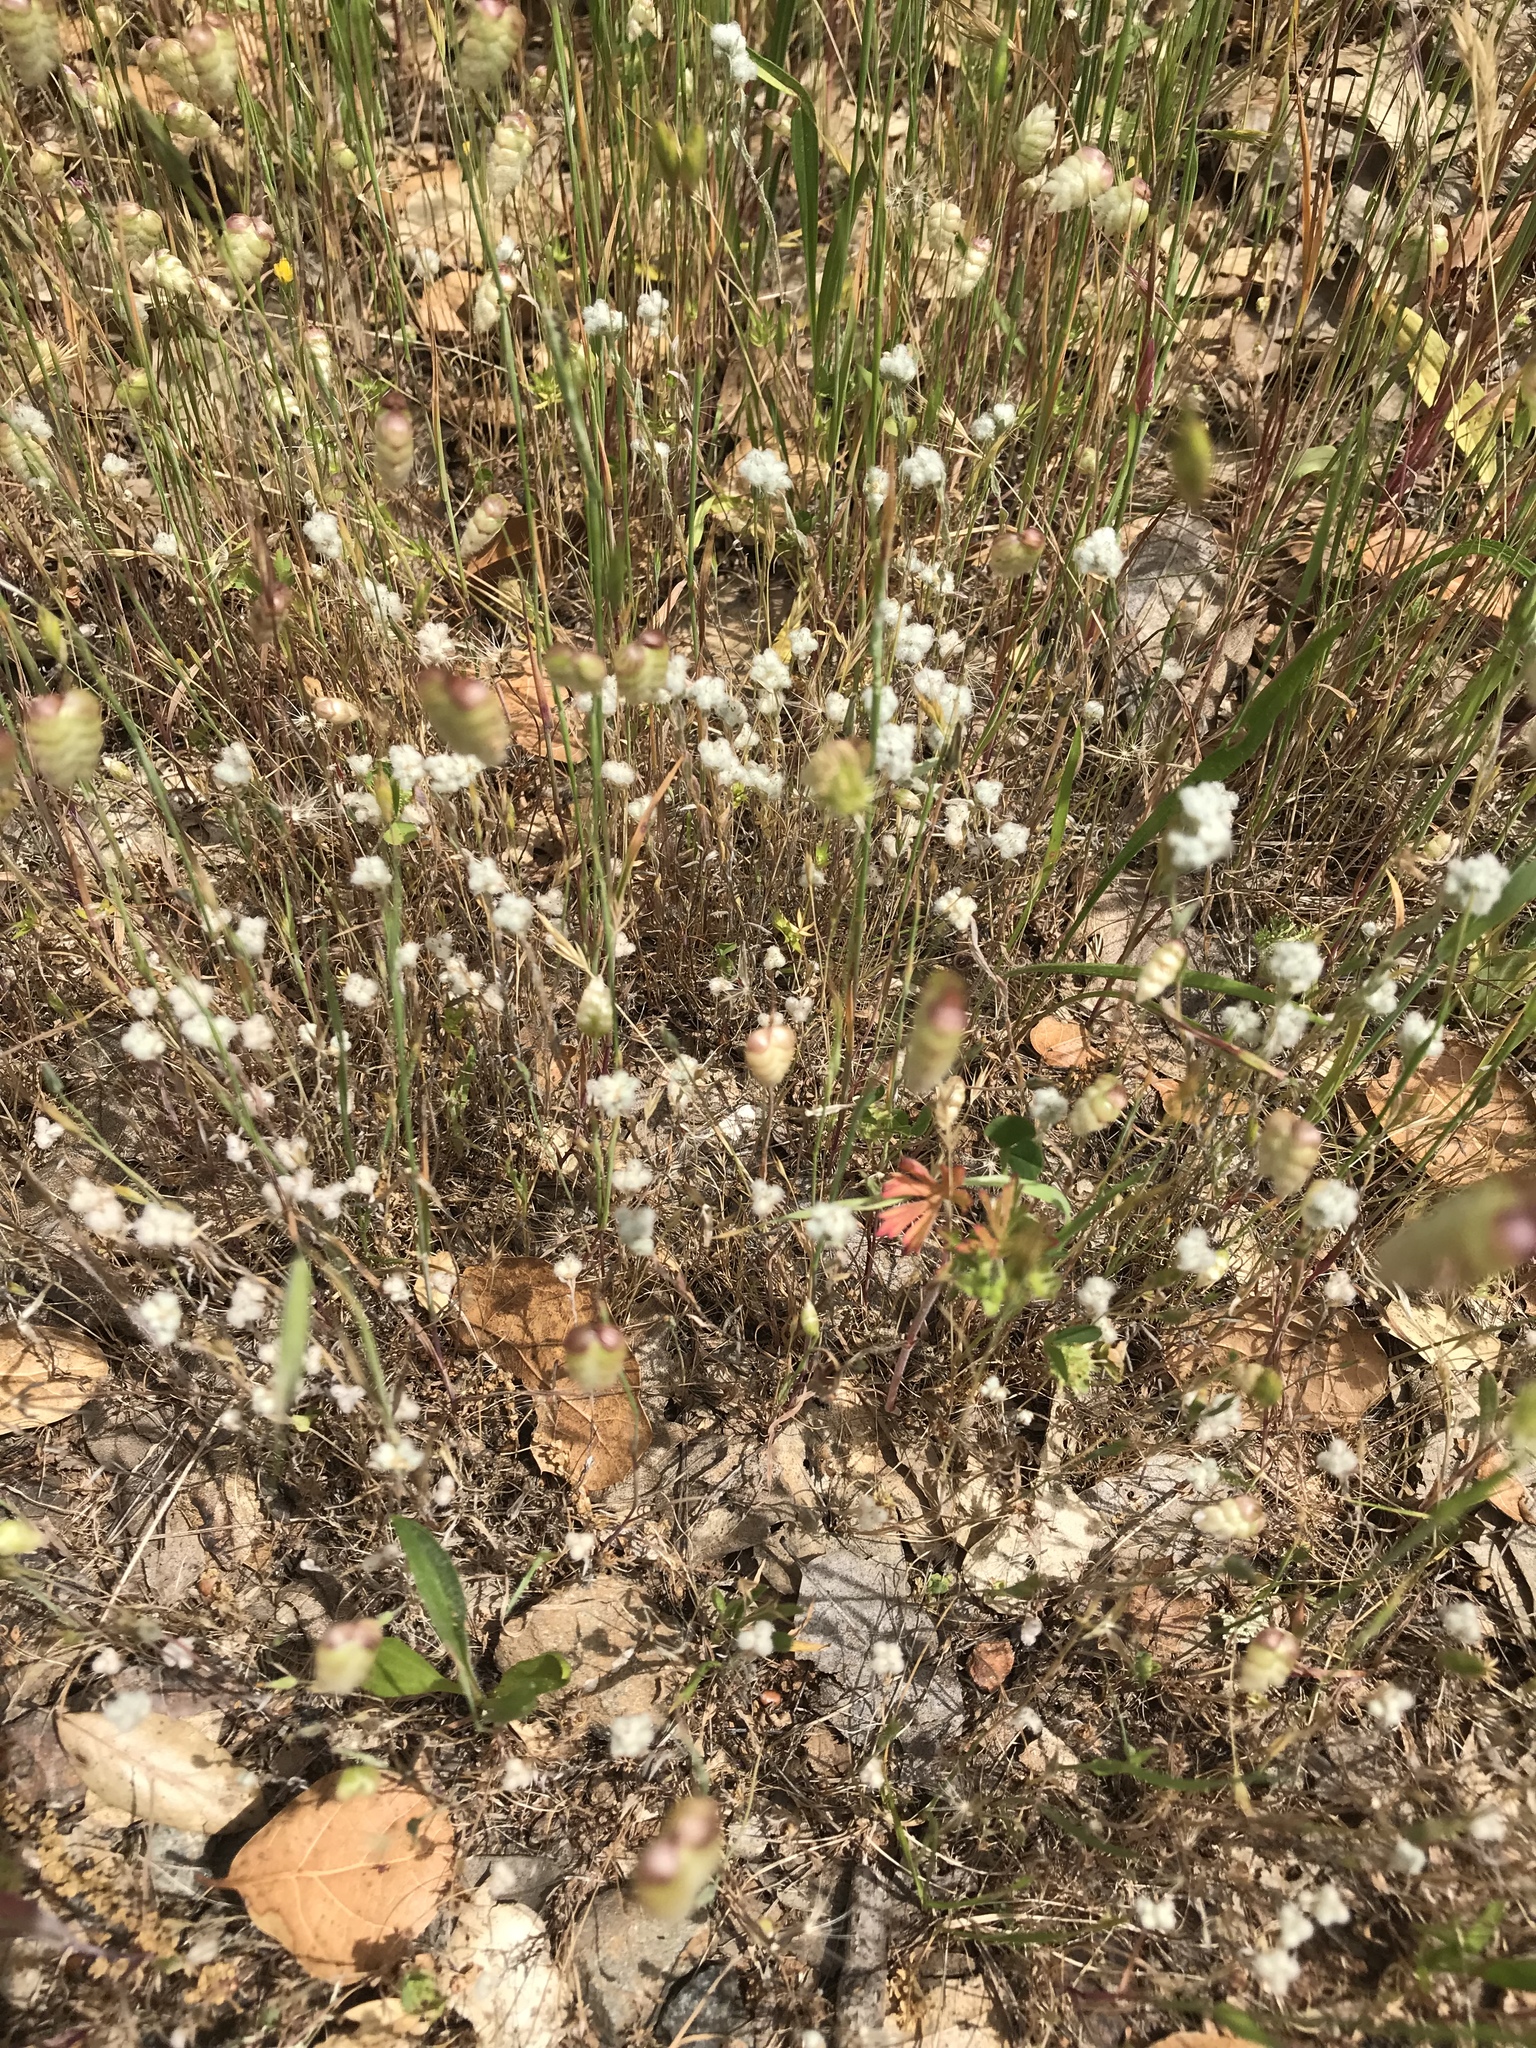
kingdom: Plantae
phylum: Tracheophyta
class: Magnoliopsida
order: Asterales
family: Asteraceae
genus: Bombycilaena
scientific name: Bombycilaena californica
